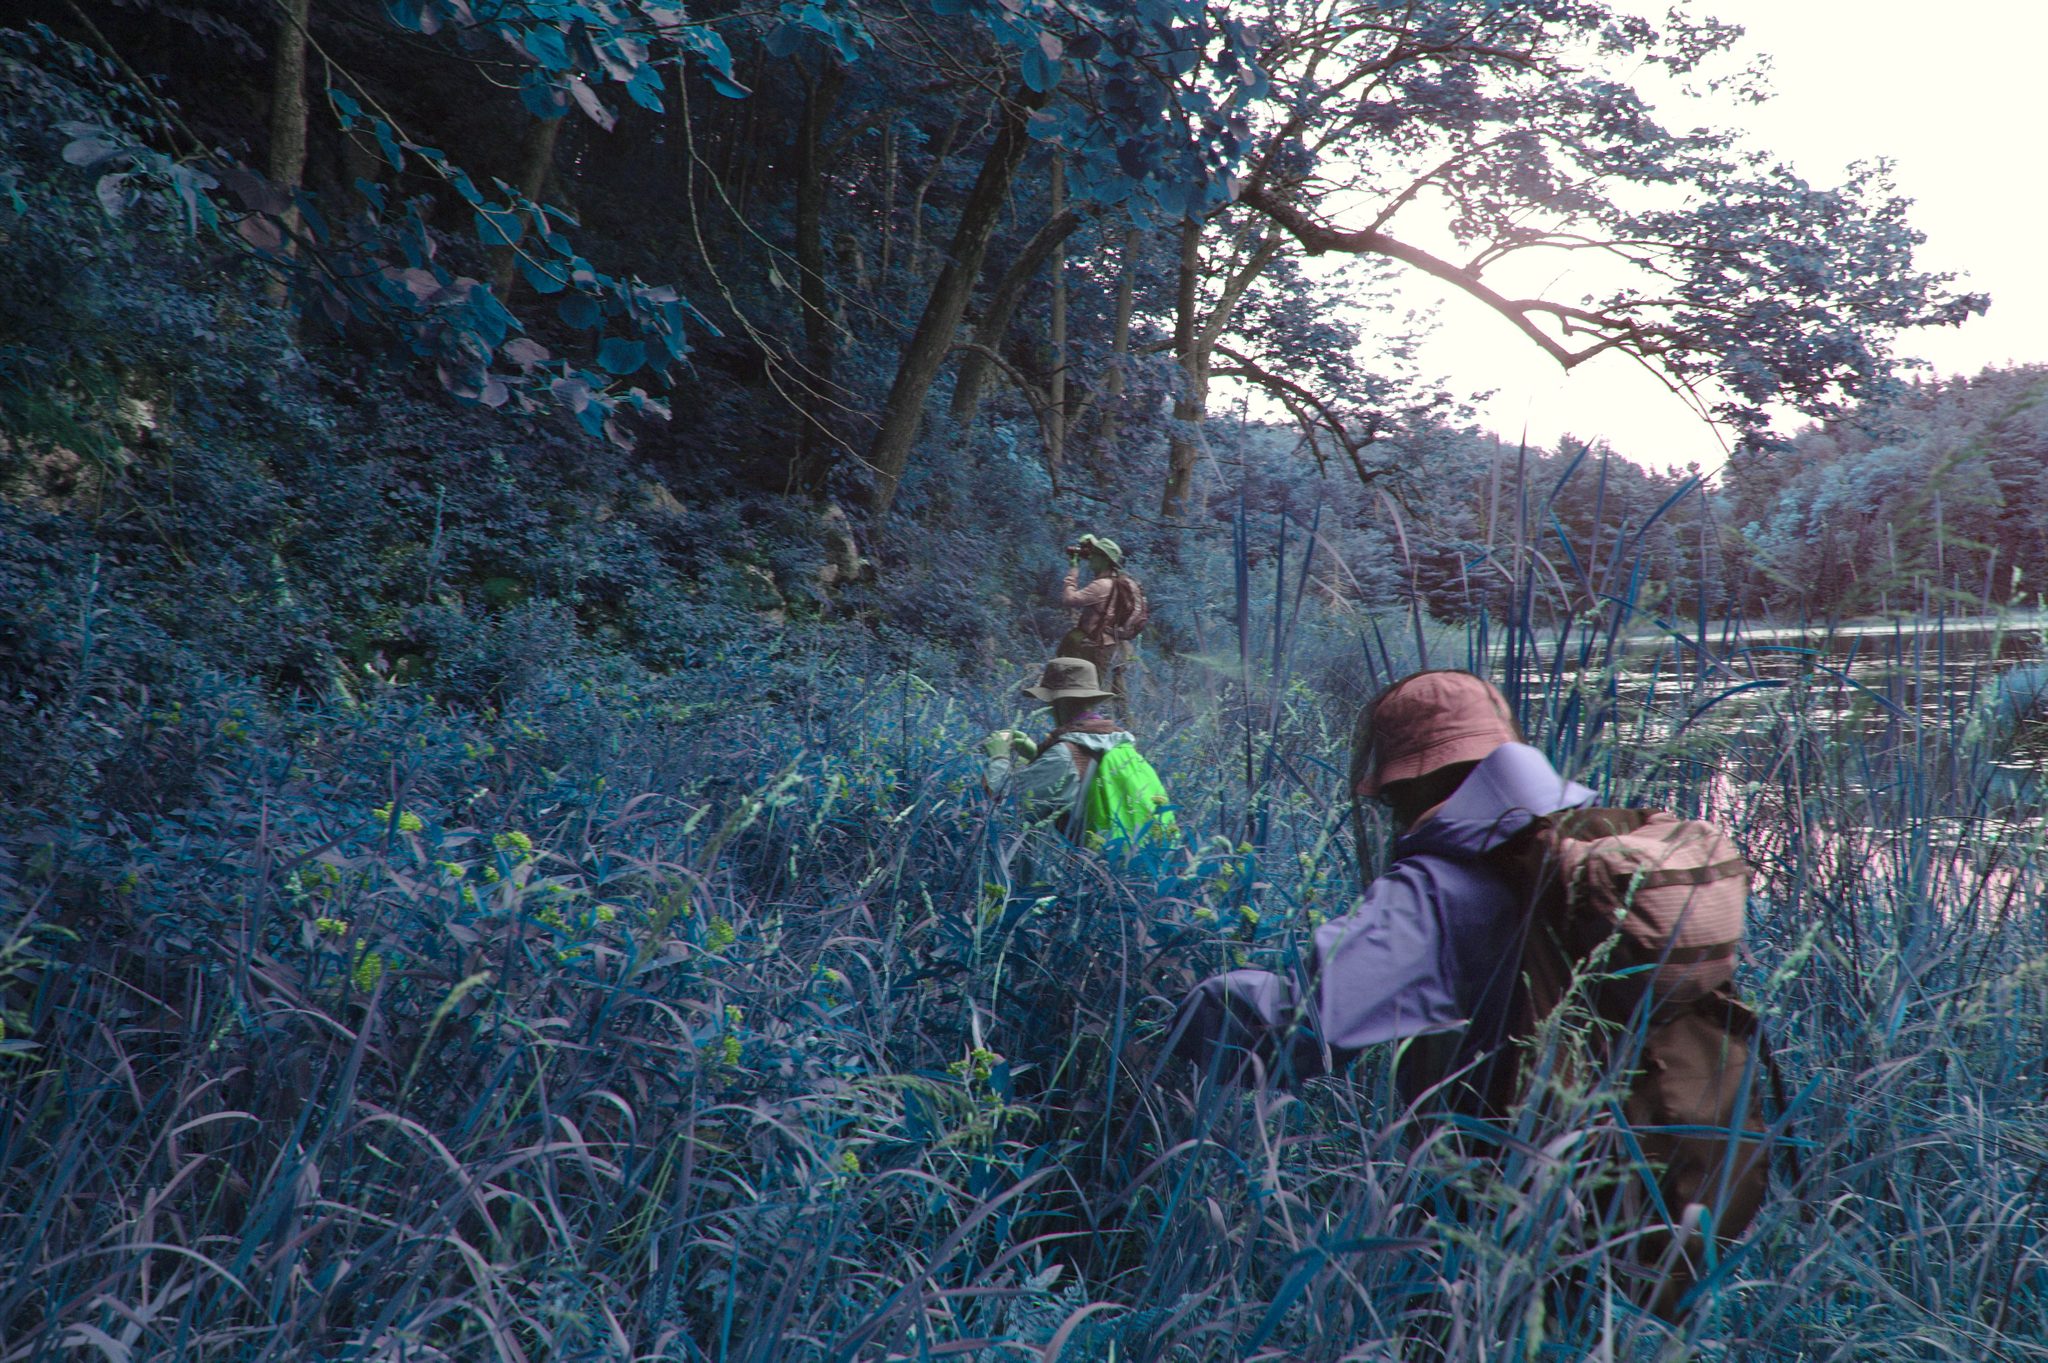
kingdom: Plantae
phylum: Tracheophyta
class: Magnoliopsida
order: Malvales
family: Malvaceae
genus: Tilia
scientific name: Tilia americana
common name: Basswood
